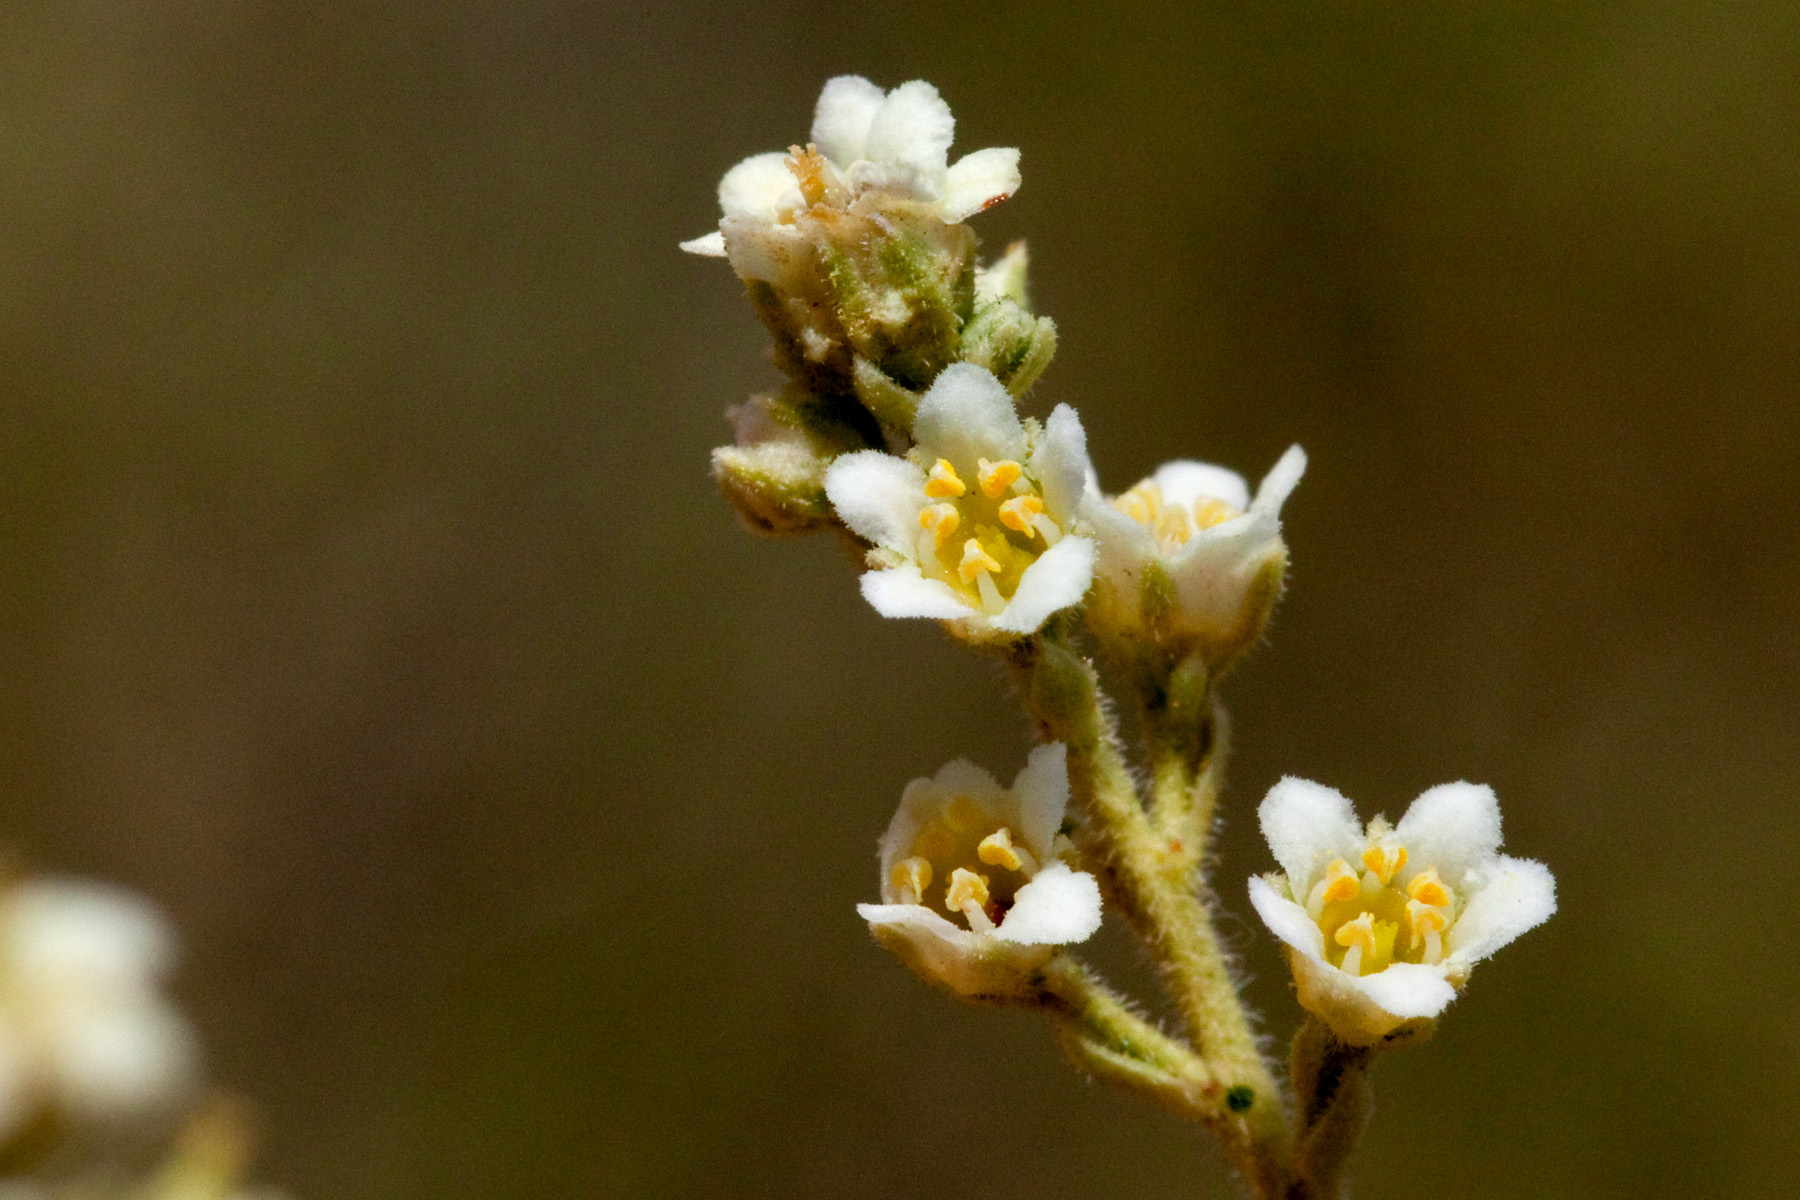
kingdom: Plantae
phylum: Tracheophyta
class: Magnoliopsida
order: Celastrales
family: Celastraceae
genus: Mortonia
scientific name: Mortonia scabrella
